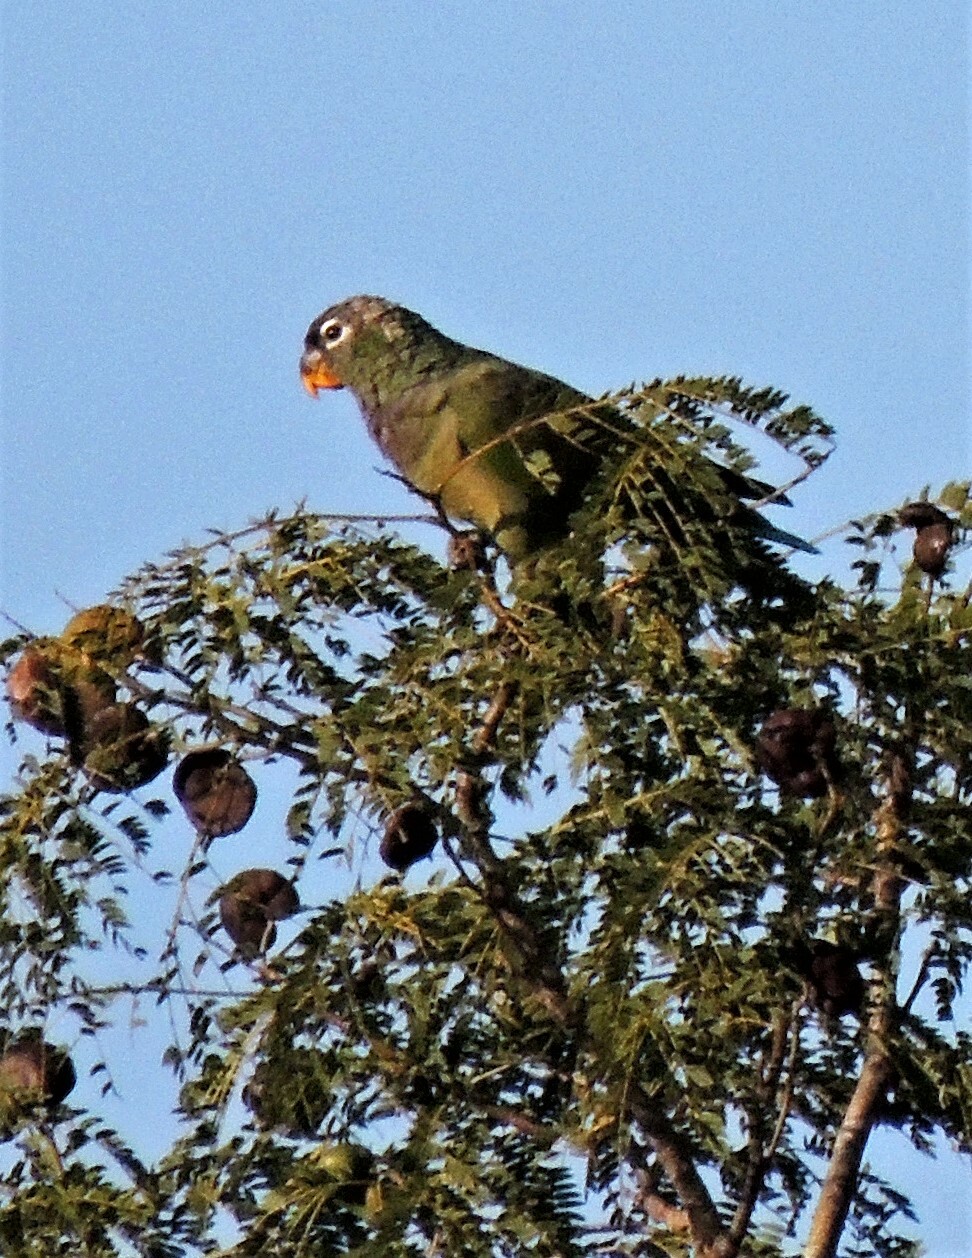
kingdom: Animalia
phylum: Chordata
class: Aves
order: Psittaciformes
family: Psittacidae
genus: Pionus
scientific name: Pionus maximiliani
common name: Scaly-headed parrot
